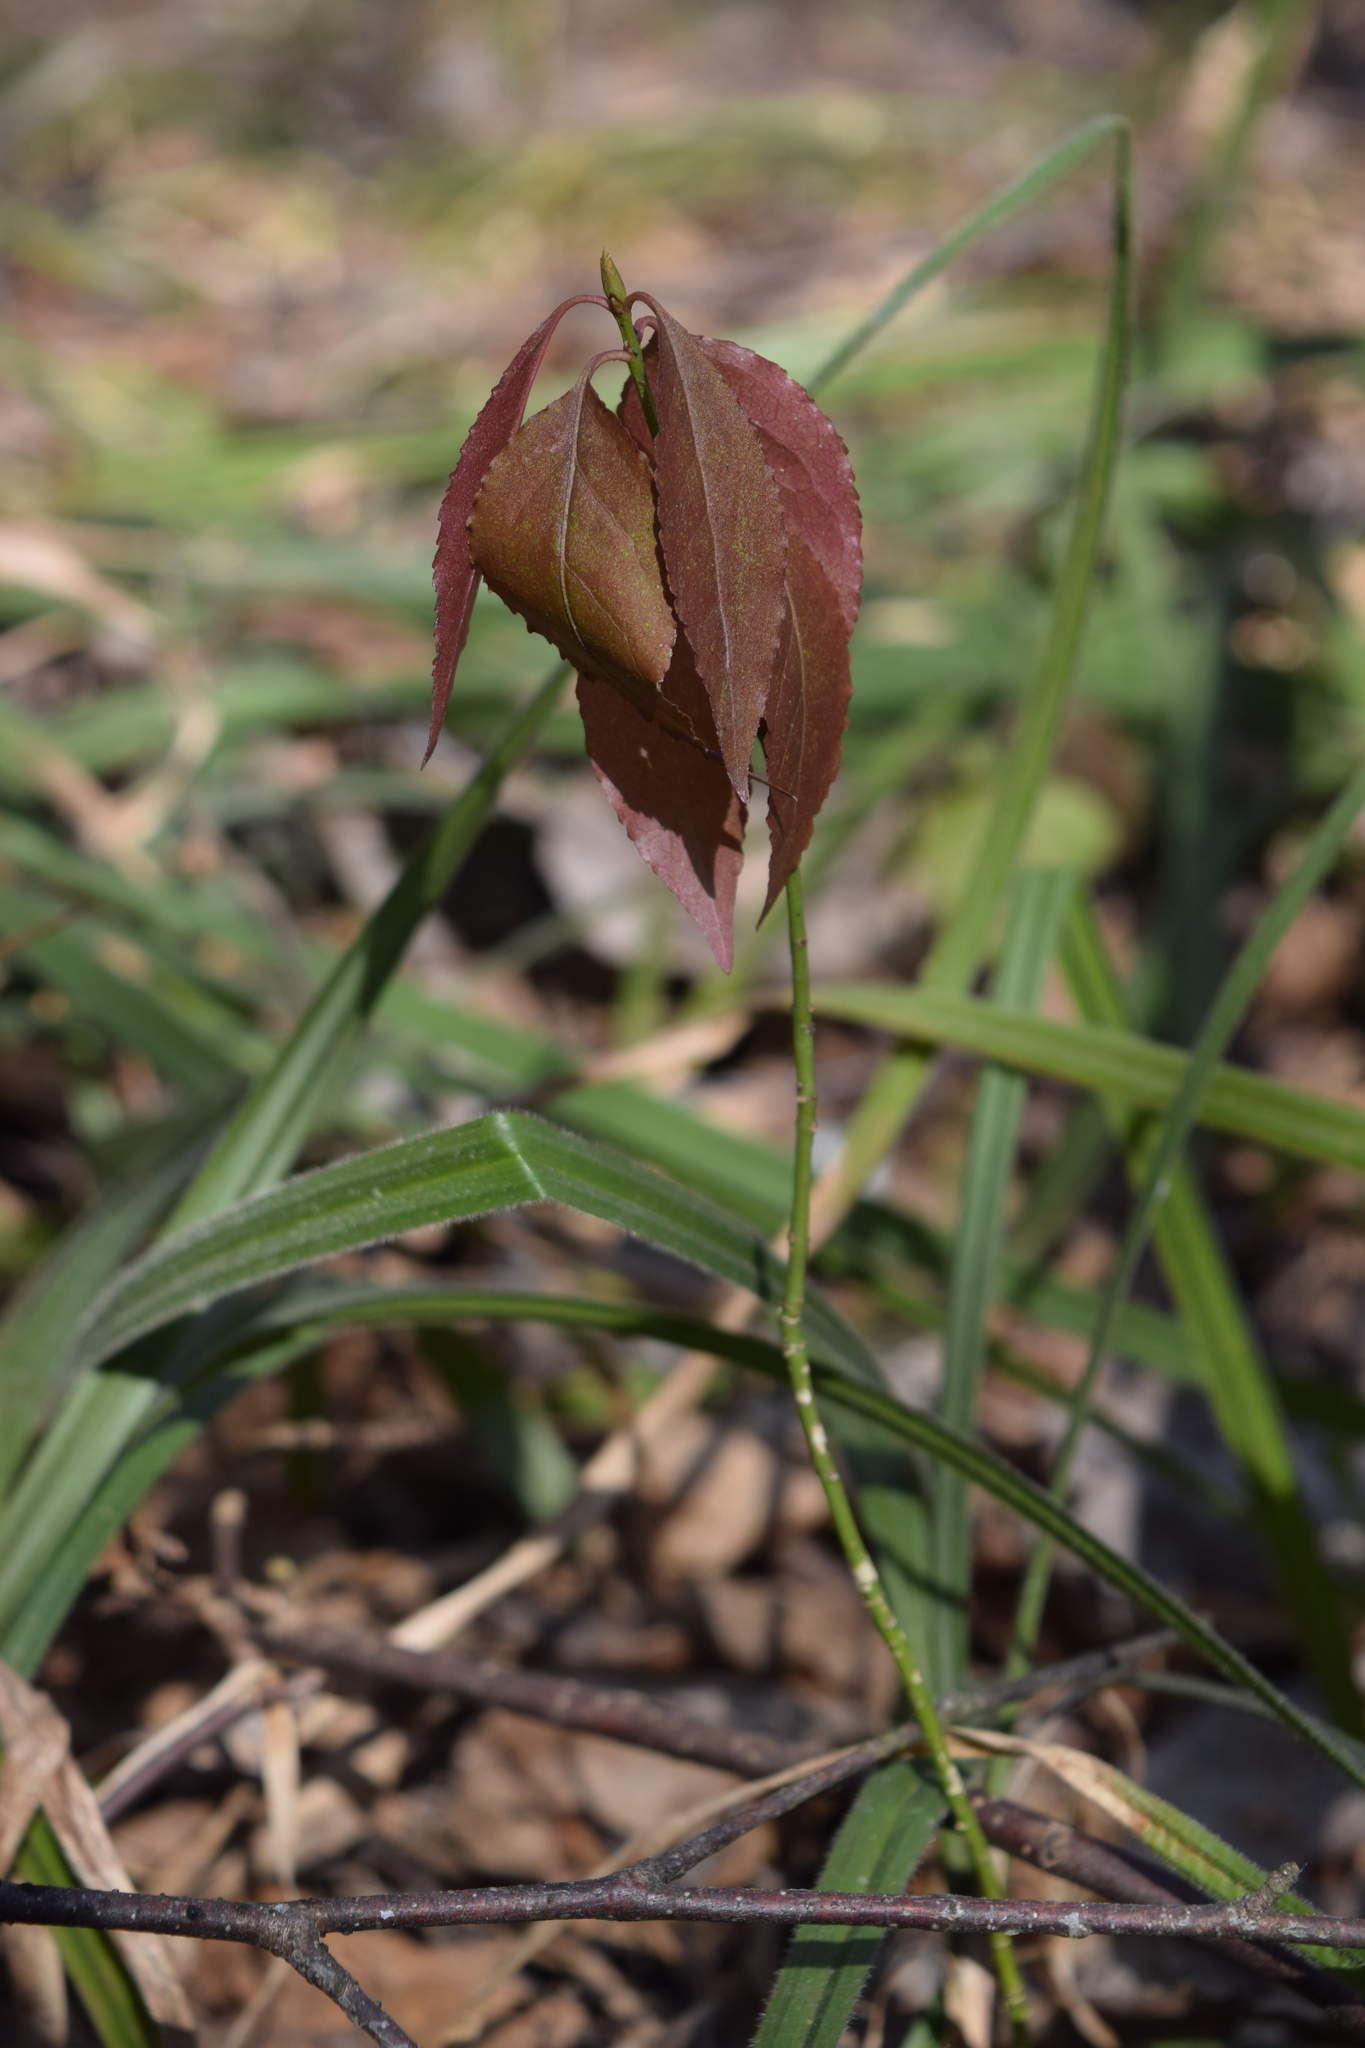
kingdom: Plantae
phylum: Tracheophyta
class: Magnoliopsida
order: Celastrales
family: Celastraceae
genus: Euonymus
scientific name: Euonymus verrucosus
